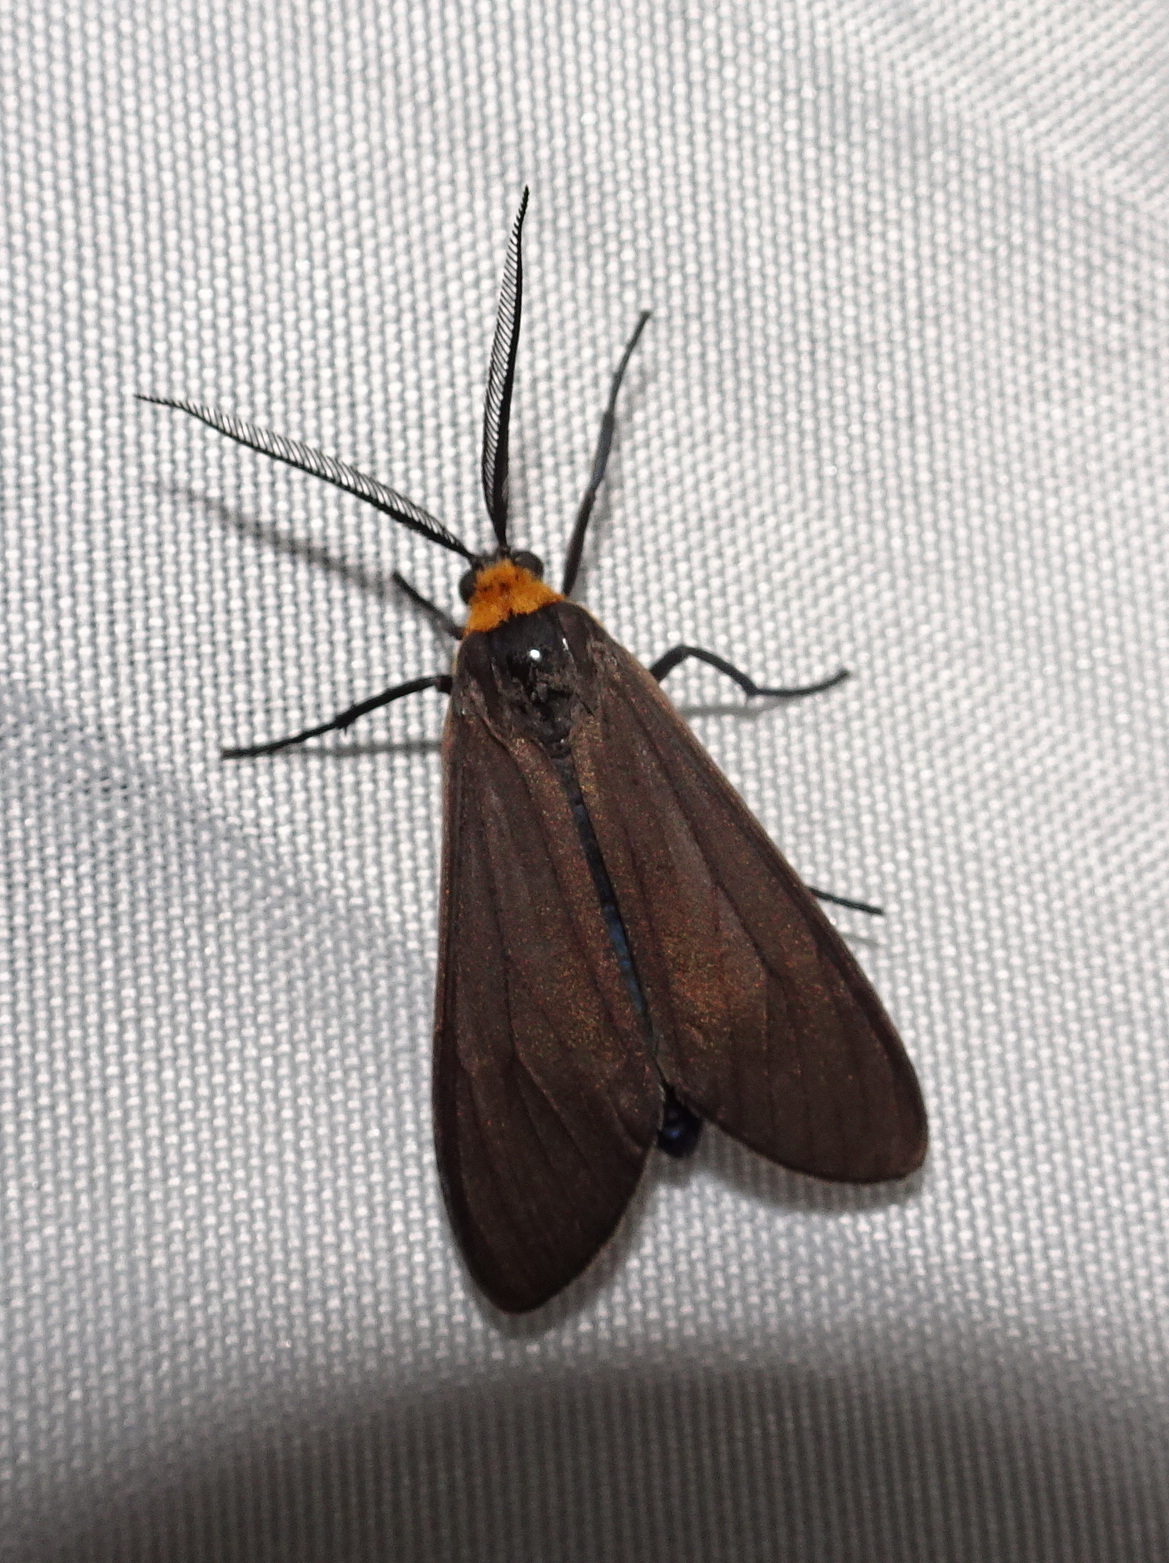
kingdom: Animalia
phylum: Arthropoda
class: Insecta
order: Lepidoptera
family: Erebidae
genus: Cisseps
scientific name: Cisseps fulvicollis
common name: Yellow-collared scape moth
